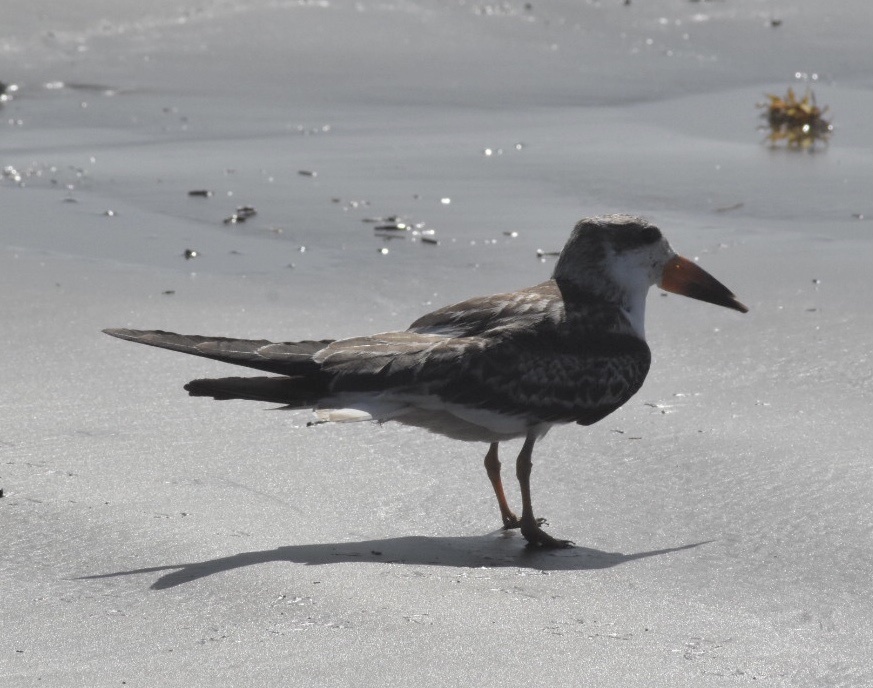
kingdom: Animalia
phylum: Chordata
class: Aves
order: Charadriiformes
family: Laridae
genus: Rynchops
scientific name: Rynchops niger
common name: Black skimmer
